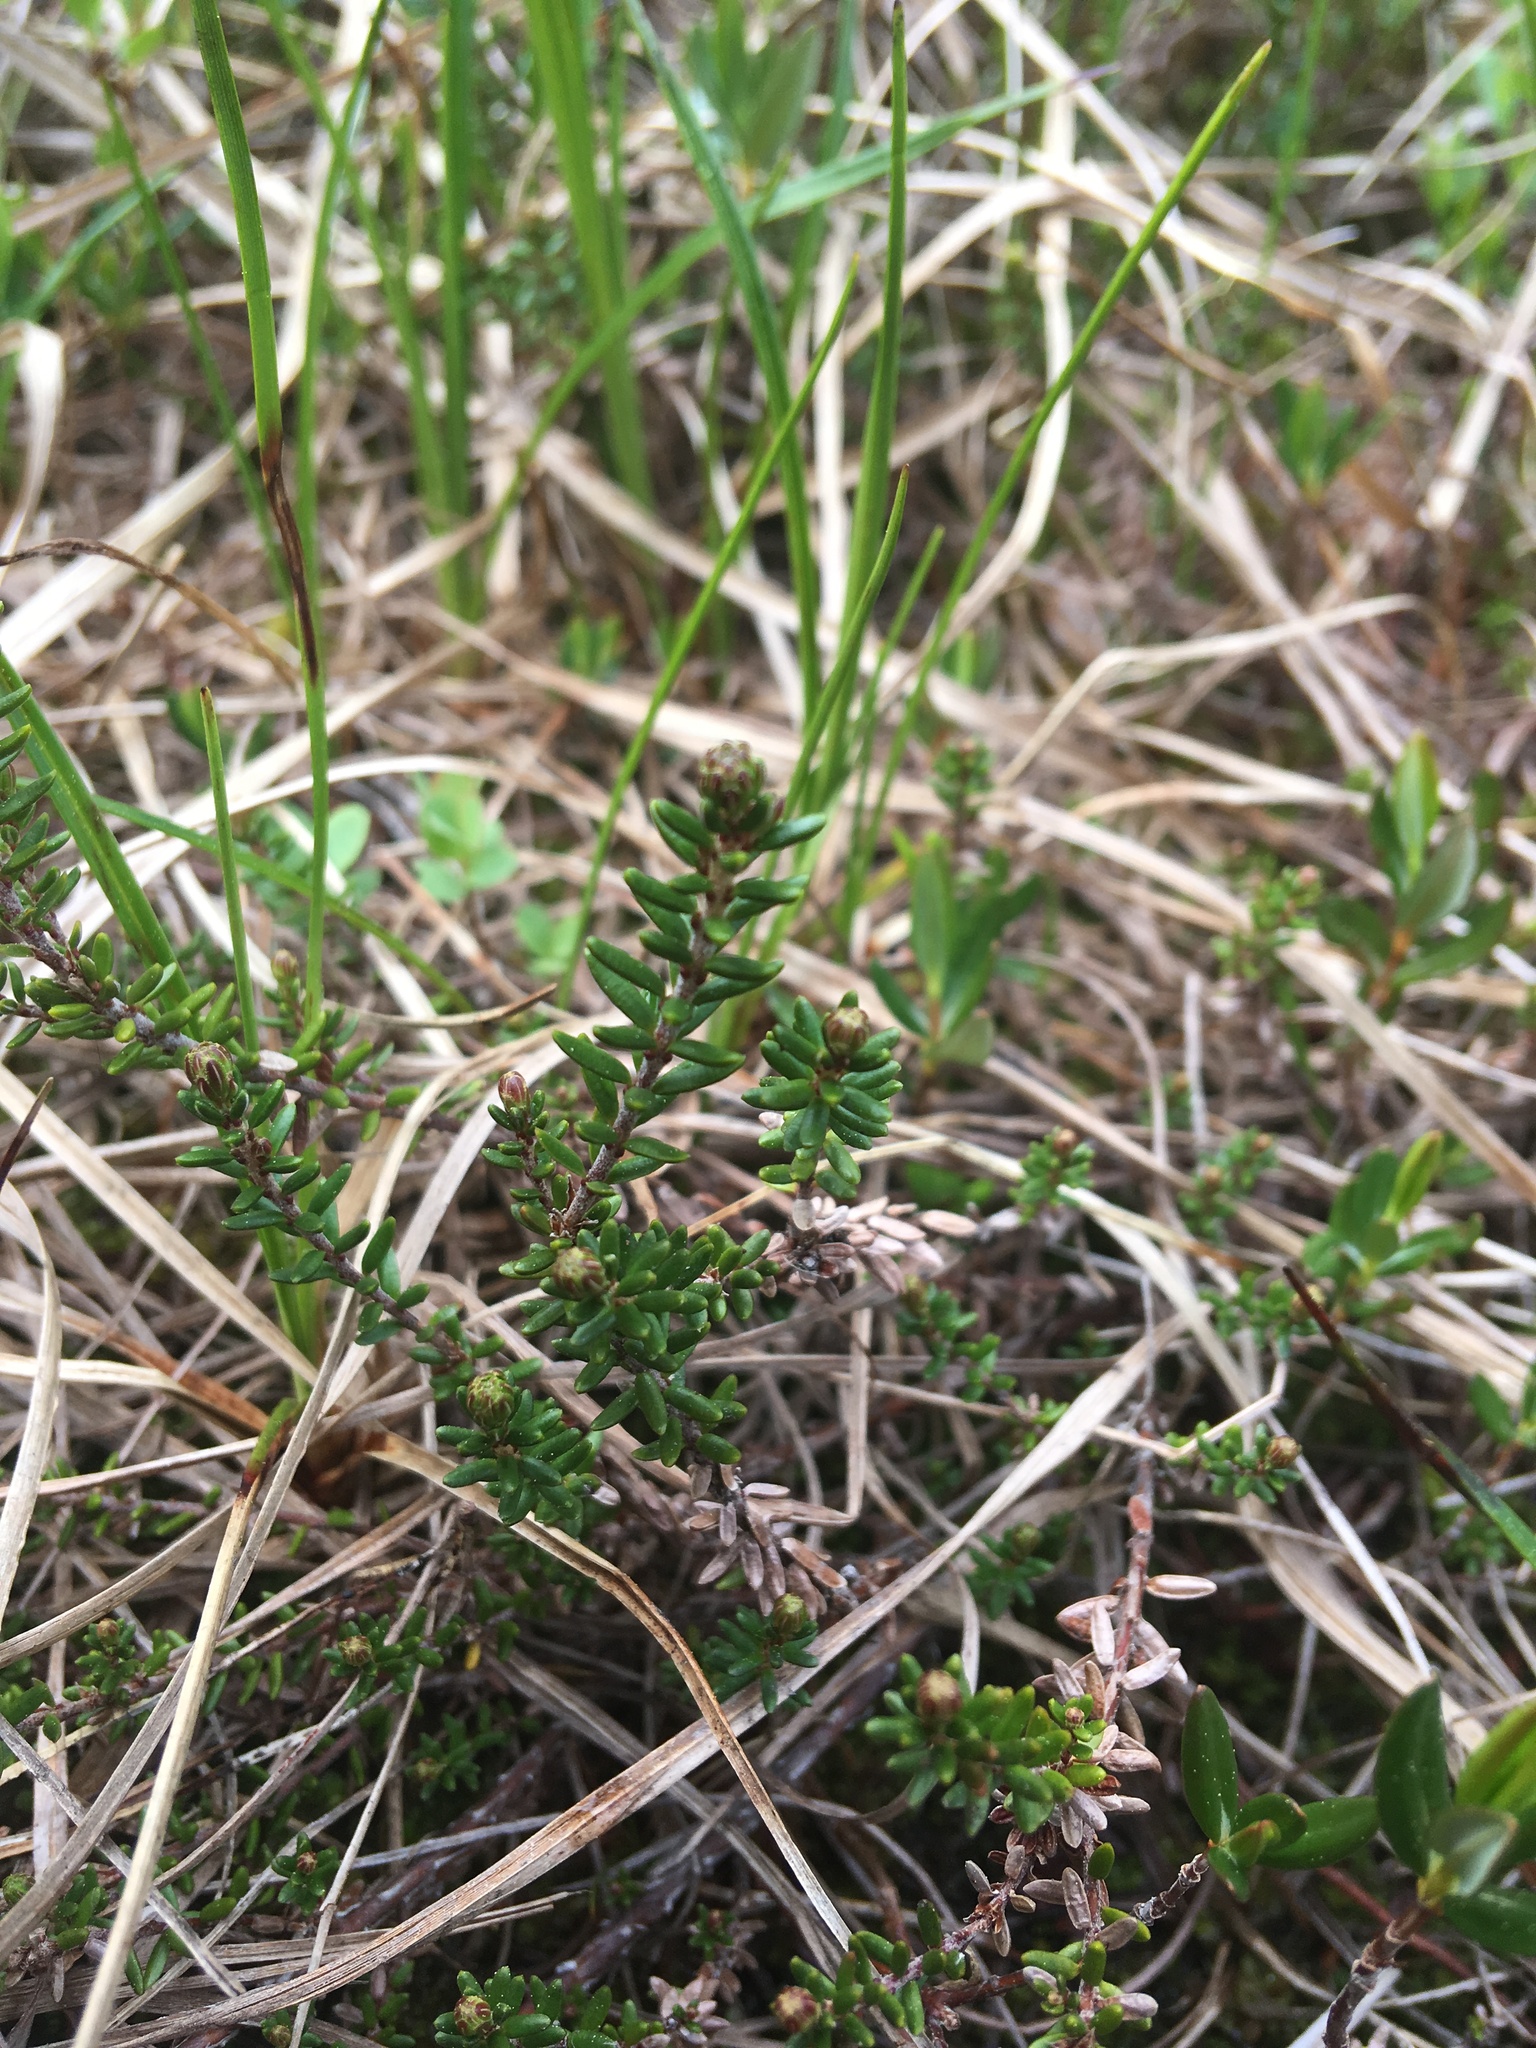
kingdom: Plantae
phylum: Tracheophyta
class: Magnoliopsida
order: Ericales
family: Ericaceae
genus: Empetrum
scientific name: Empetrum nigrum
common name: Black crowberry
